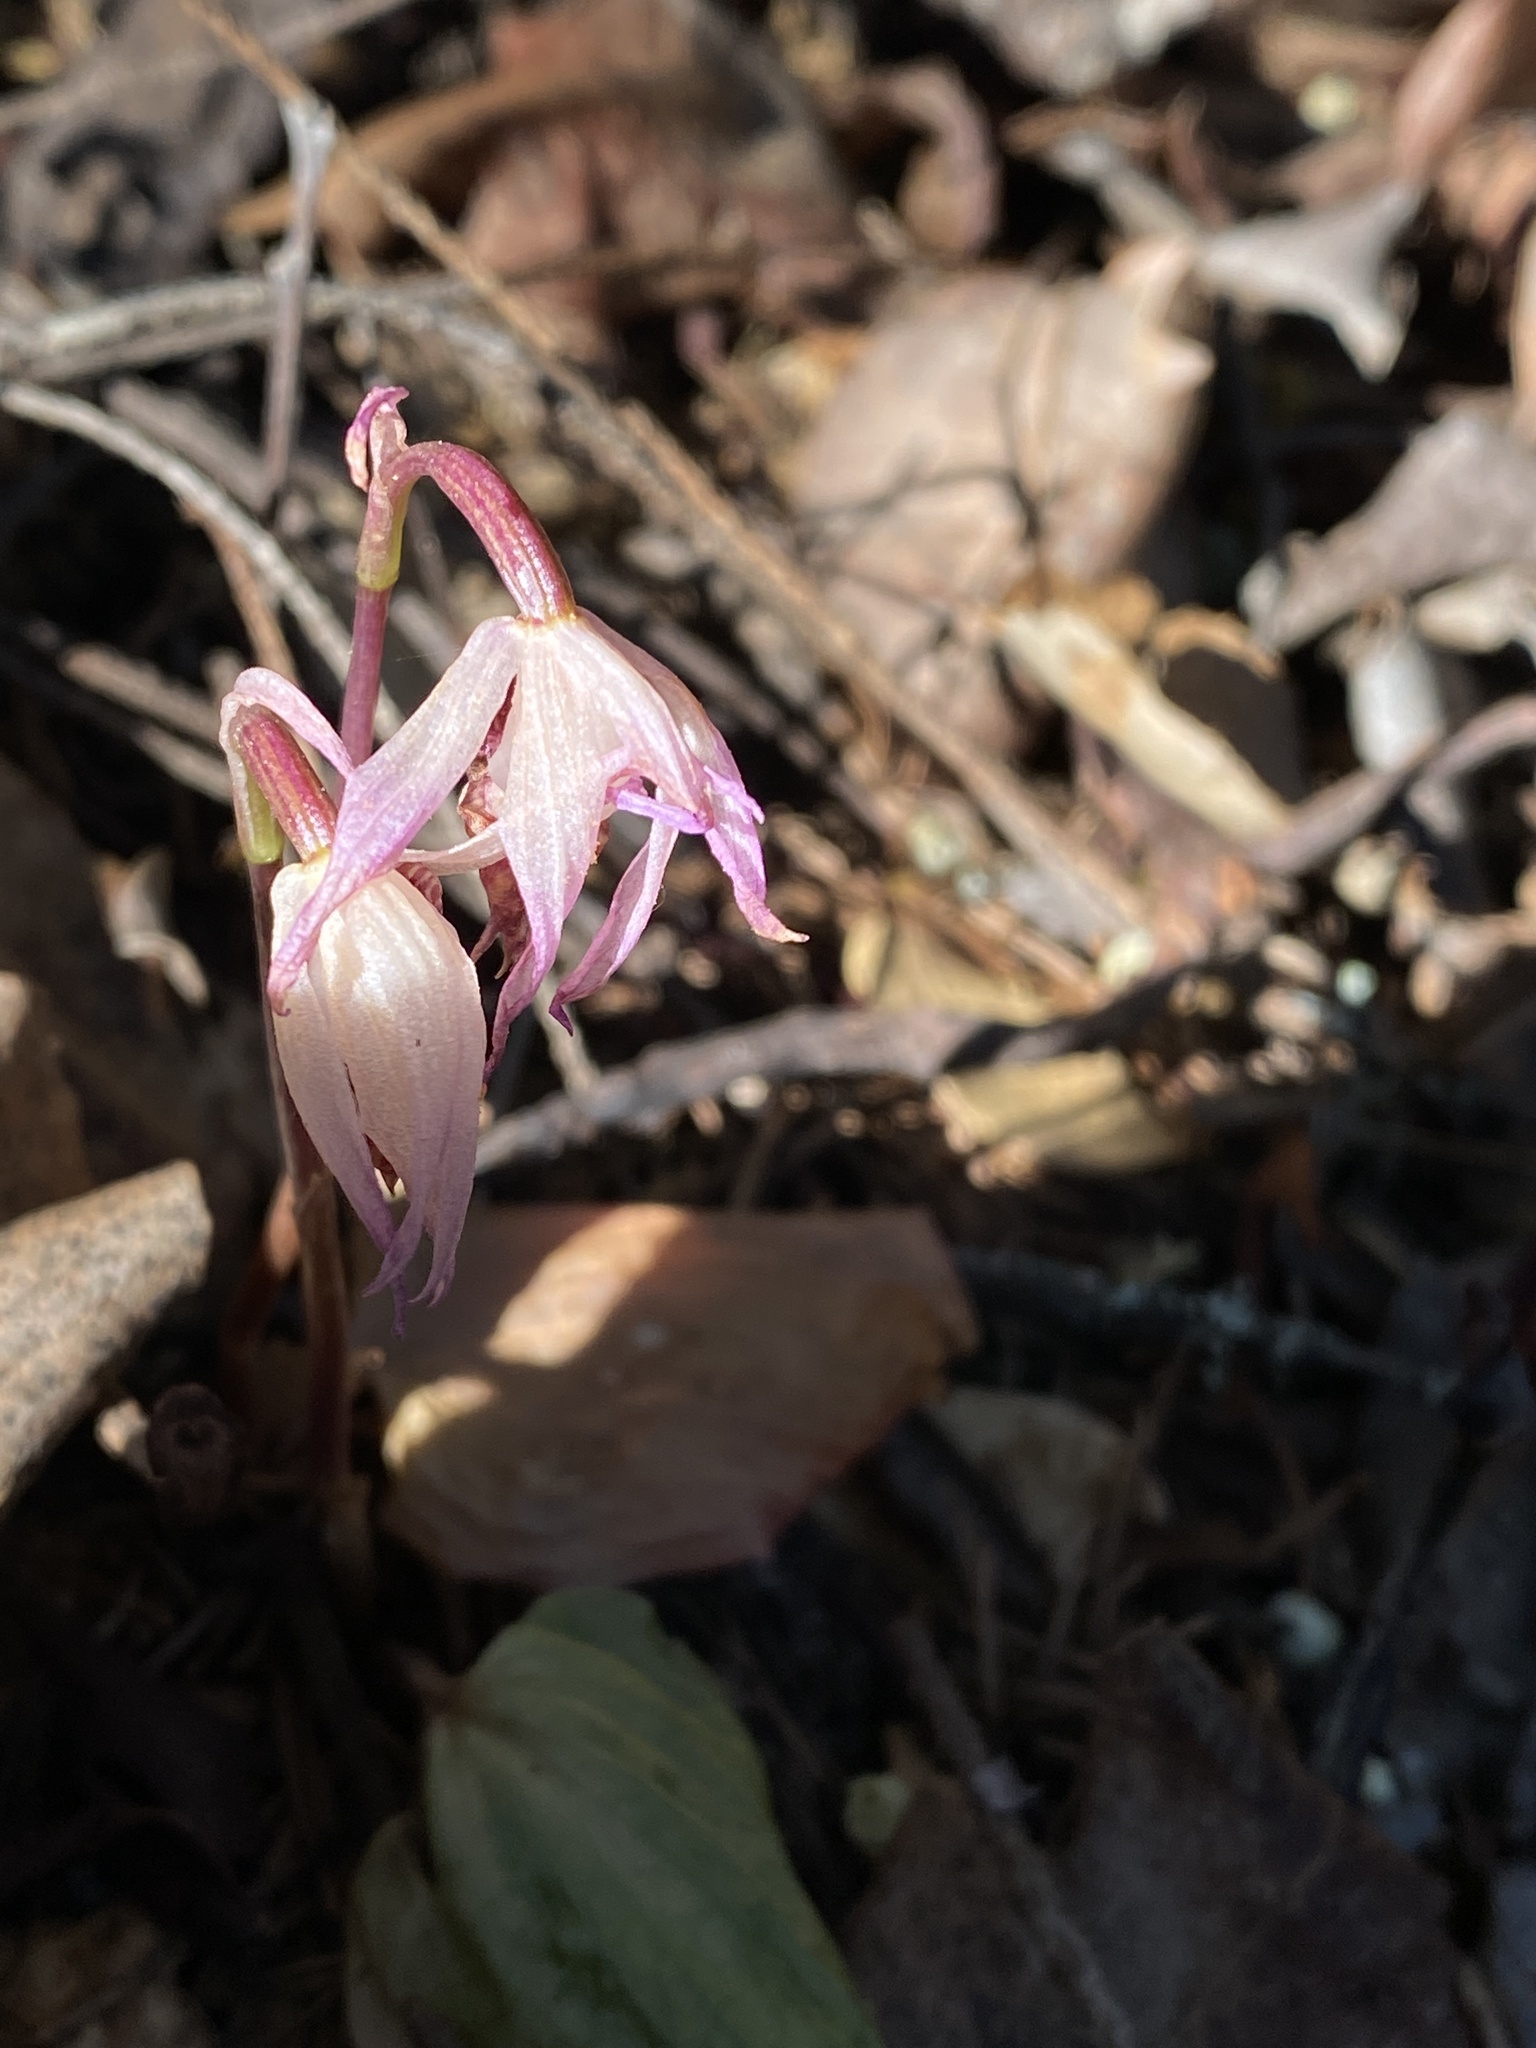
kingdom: Plantae
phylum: Tracheophyta
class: Liliopsida
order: Asparagales
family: Orchidaceae
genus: Calypso
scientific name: Calypso bulbosa
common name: Calypso
